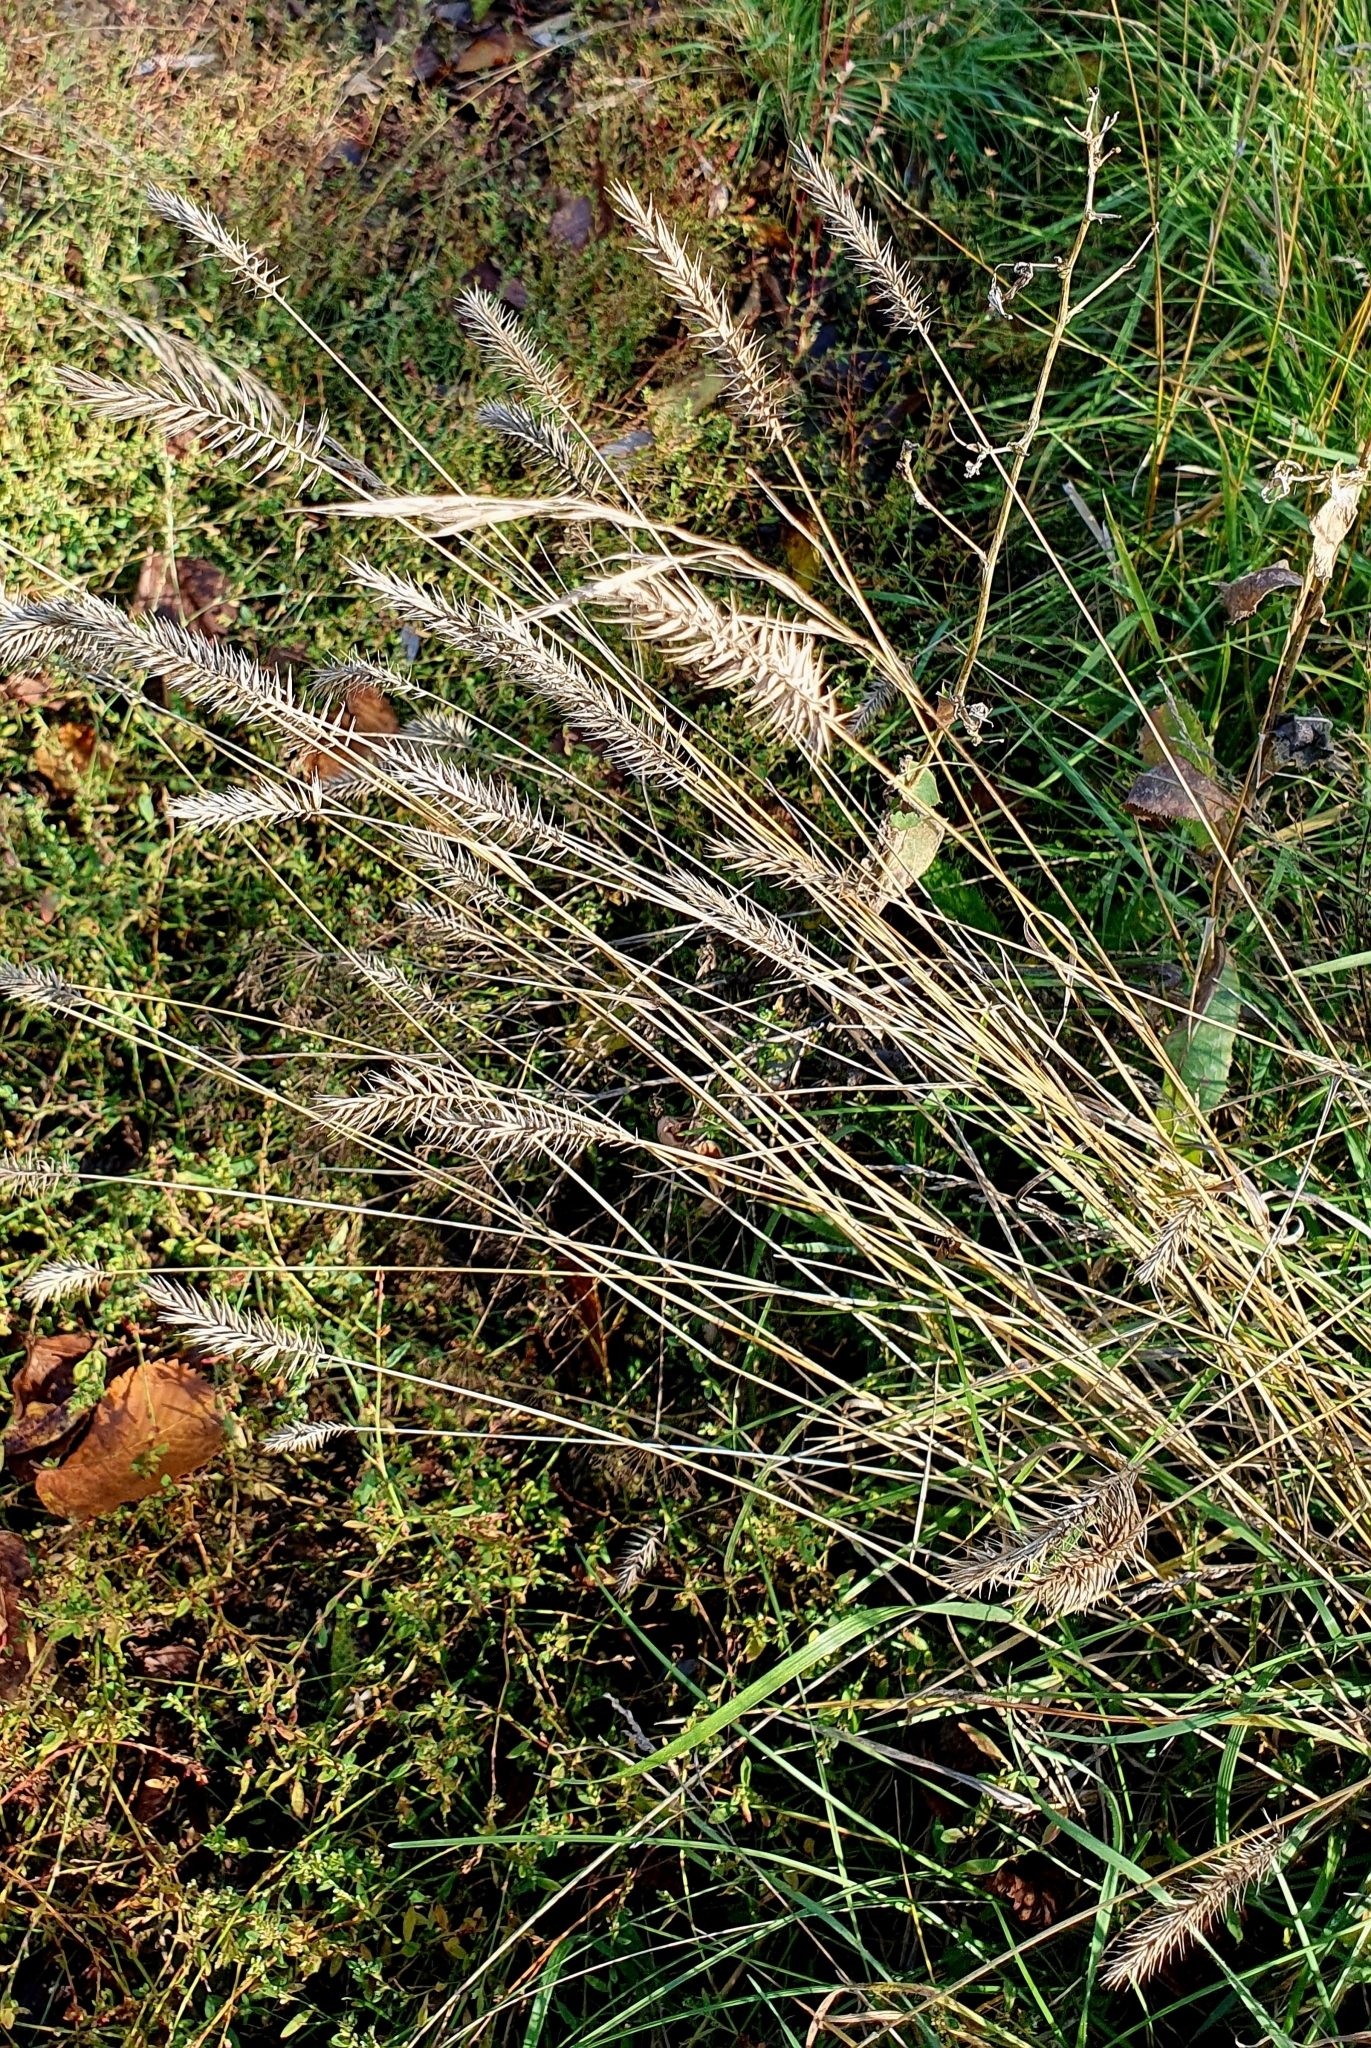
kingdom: Plantae
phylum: Tracheophyta
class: Liliopsida
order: Poales
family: Poaceae
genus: Agropyron
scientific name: Agropyron cristatum
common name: Crested wheatgrass
